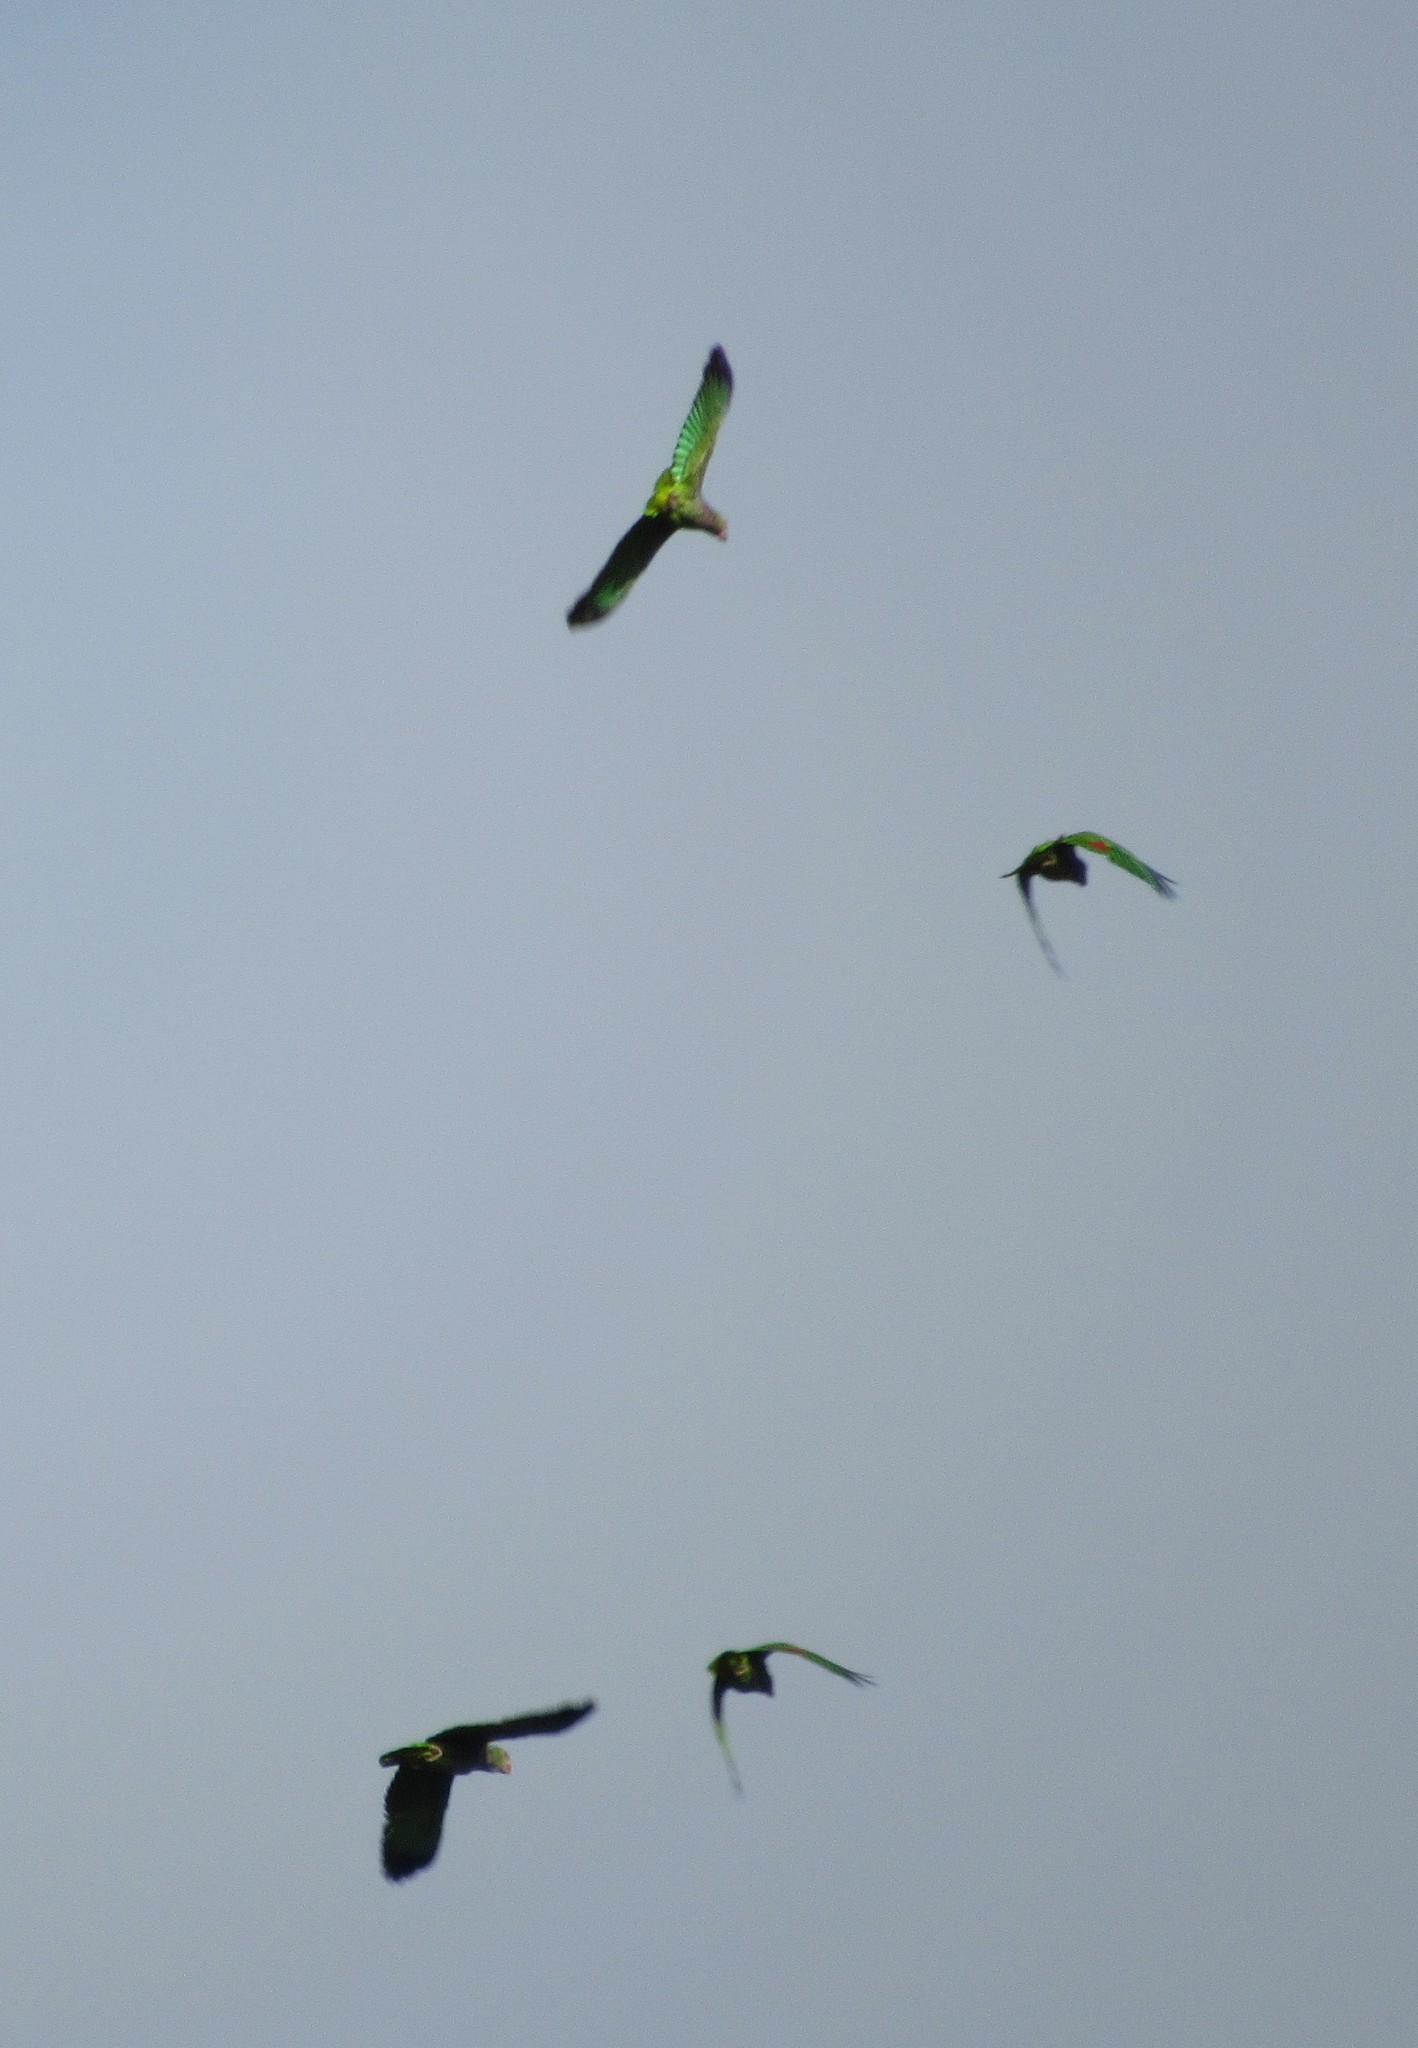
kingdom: Animalia
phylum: Chordata
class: Aves
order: Psittaciformes
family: Psittacidae
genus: Amazona
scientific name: Amazona vinacea
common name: Vinaceous-breasted amazon
